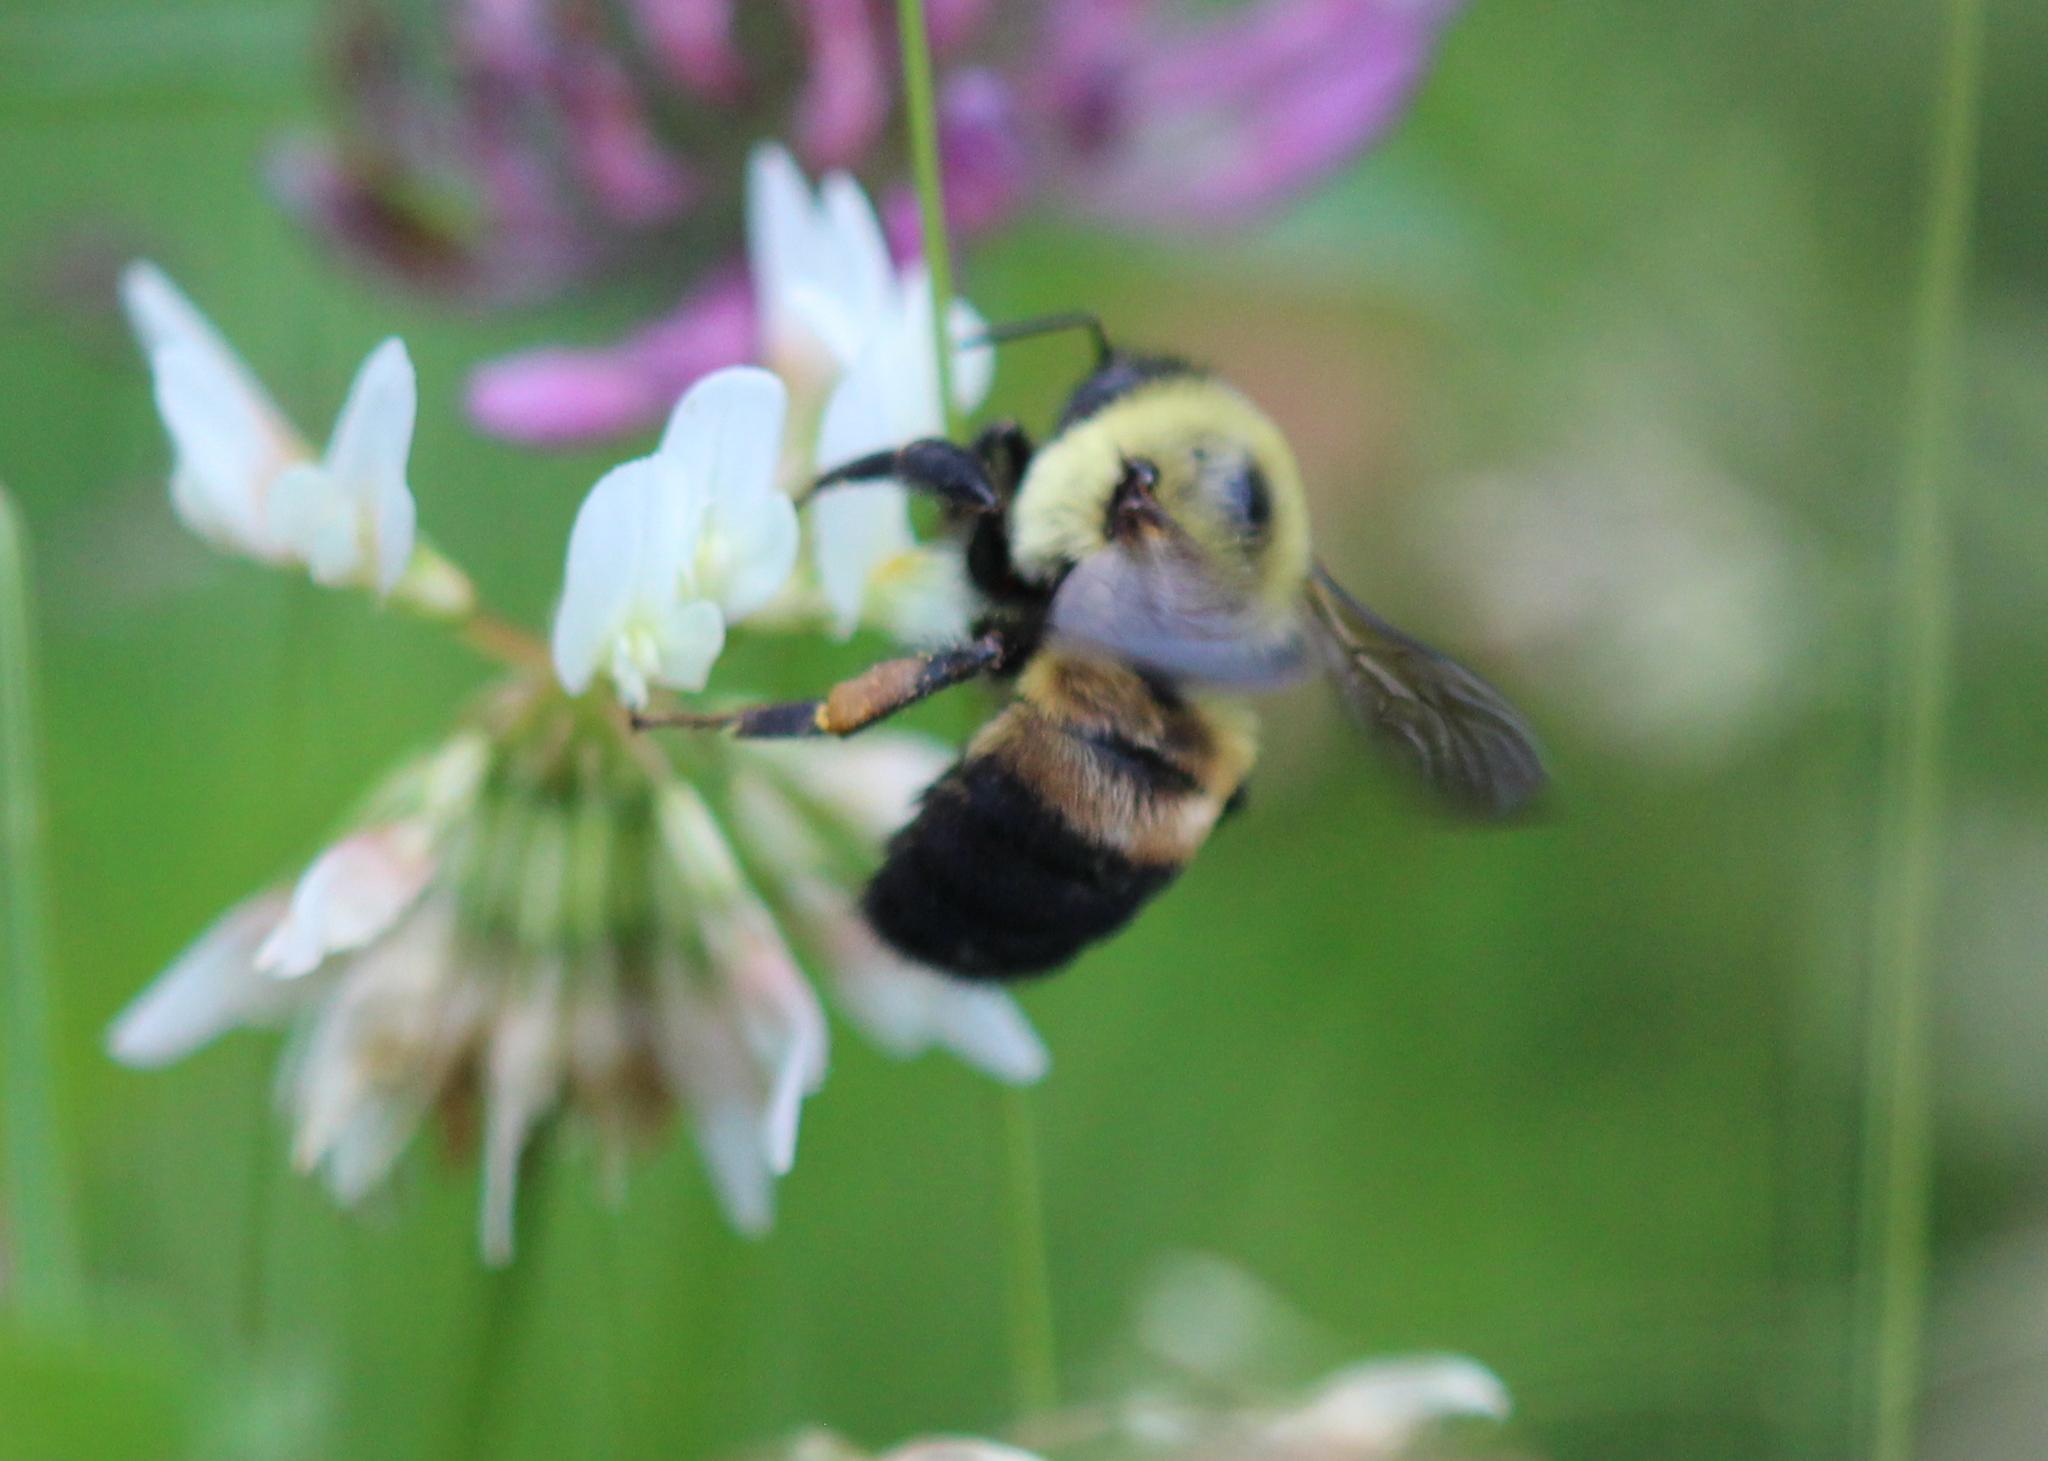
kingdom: Animalia
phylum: Arthropoda
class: Insecta
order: Hymenoptera
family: Apidae
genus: Bombus
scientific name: Bombus griseocollis
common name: Brown-belted bumble bee
